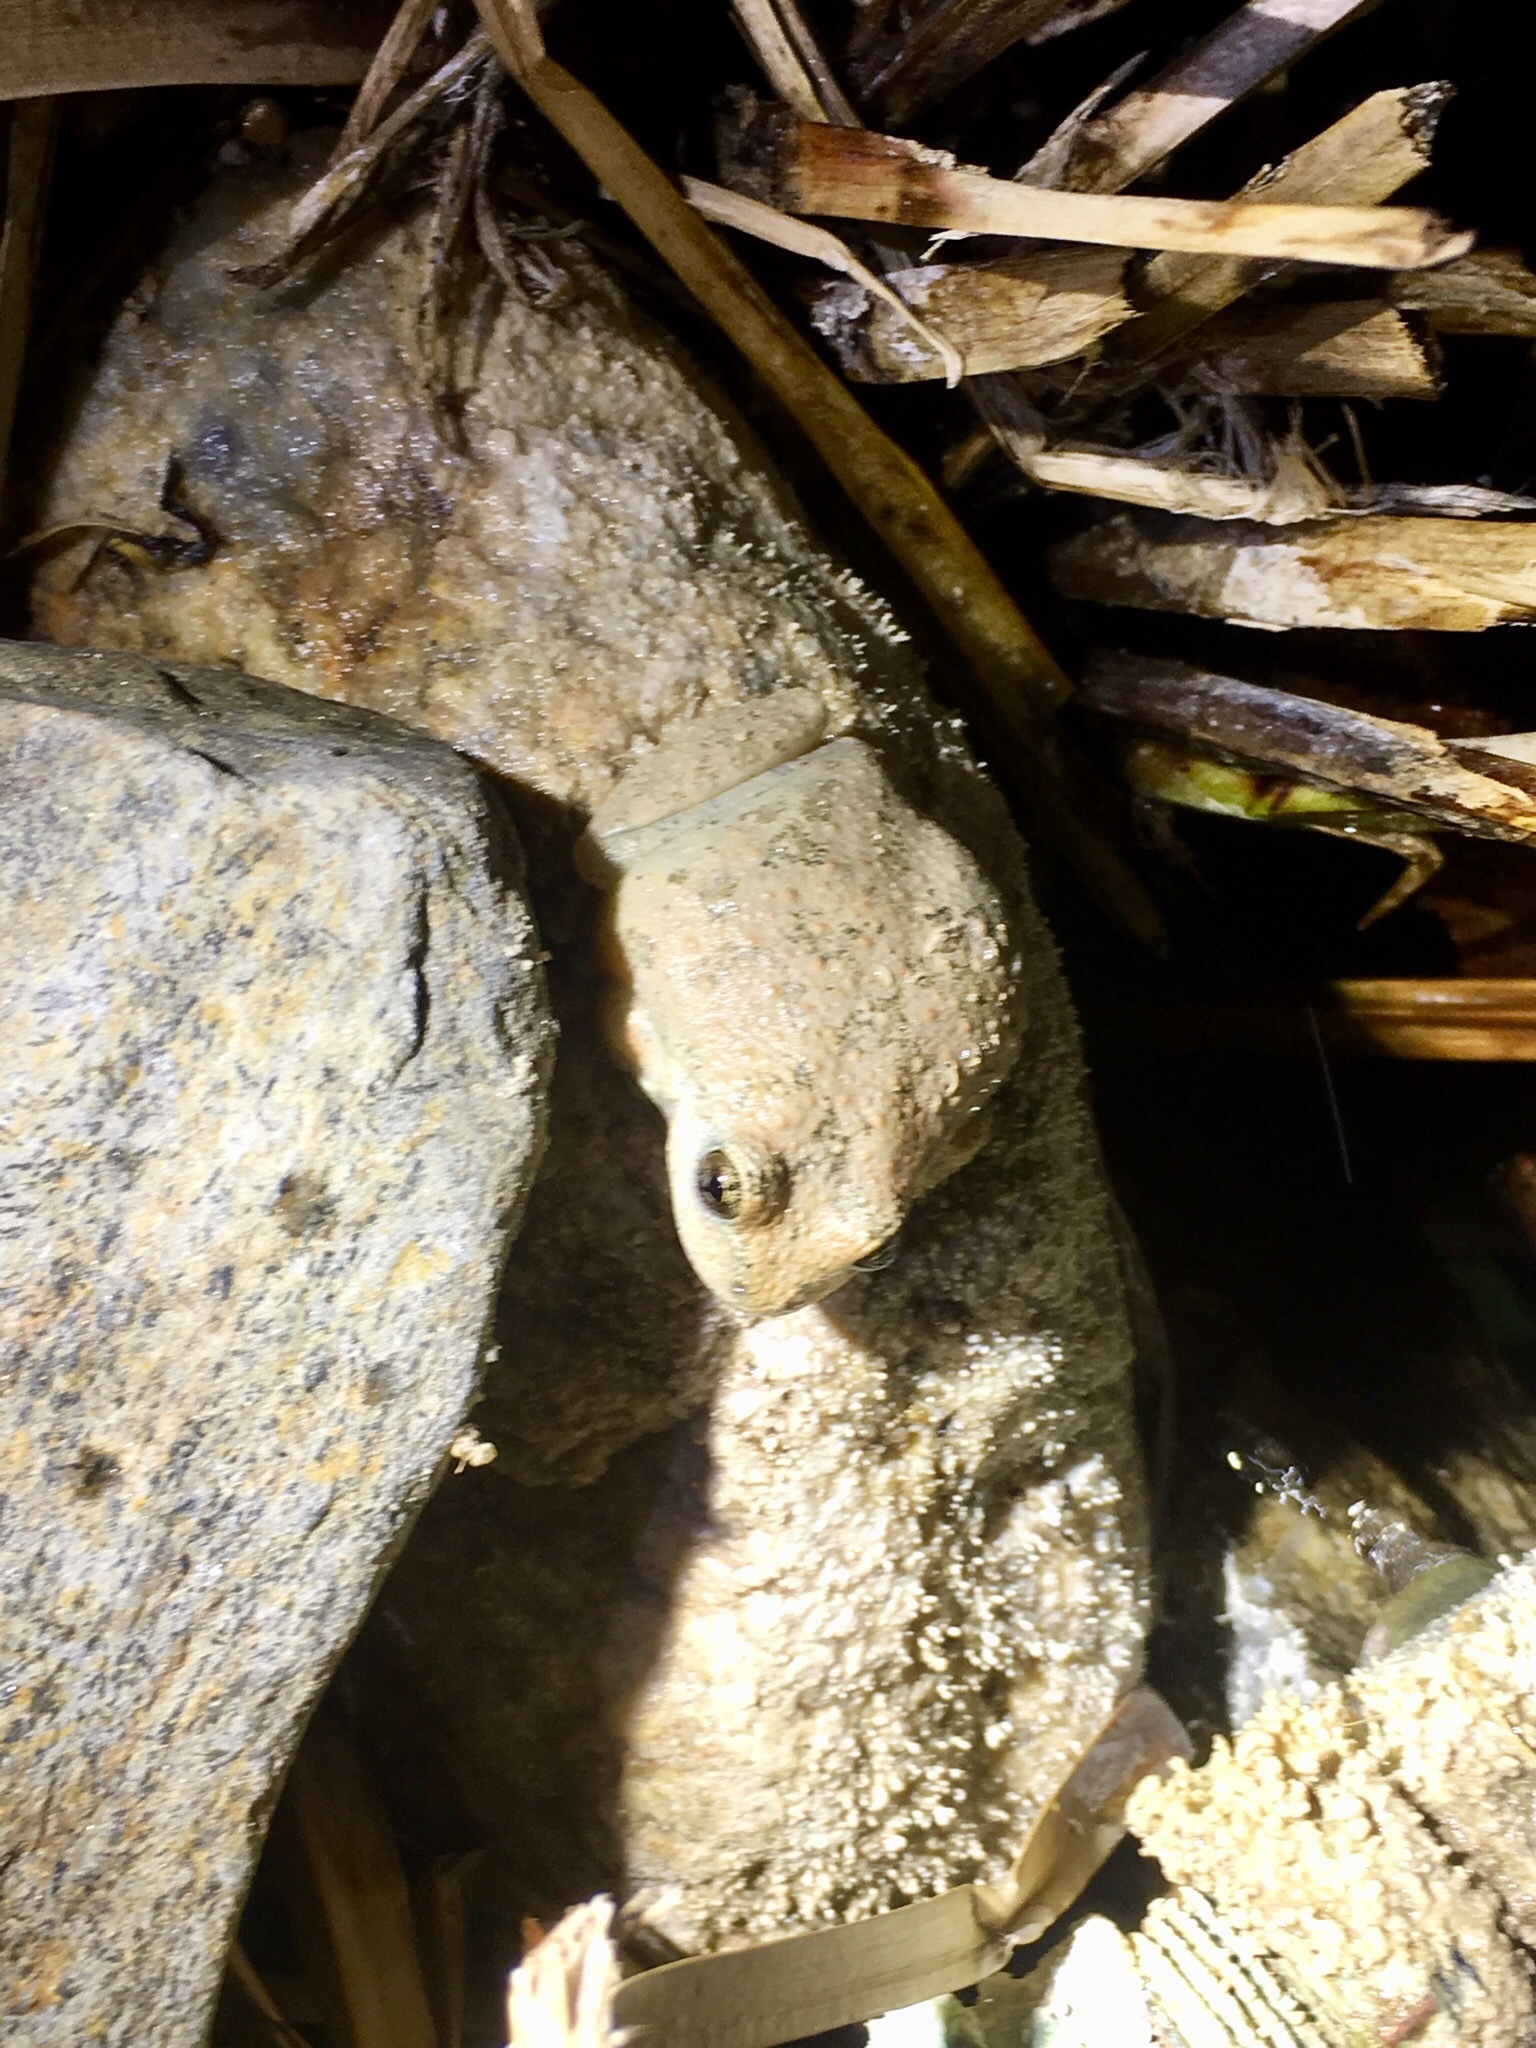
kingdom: Animalia
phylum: Chordata
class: Amphibia
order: Anura
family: Hylidae
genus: Pseudacris
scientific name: Pseudacris cadaverina
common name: California chorus frog
